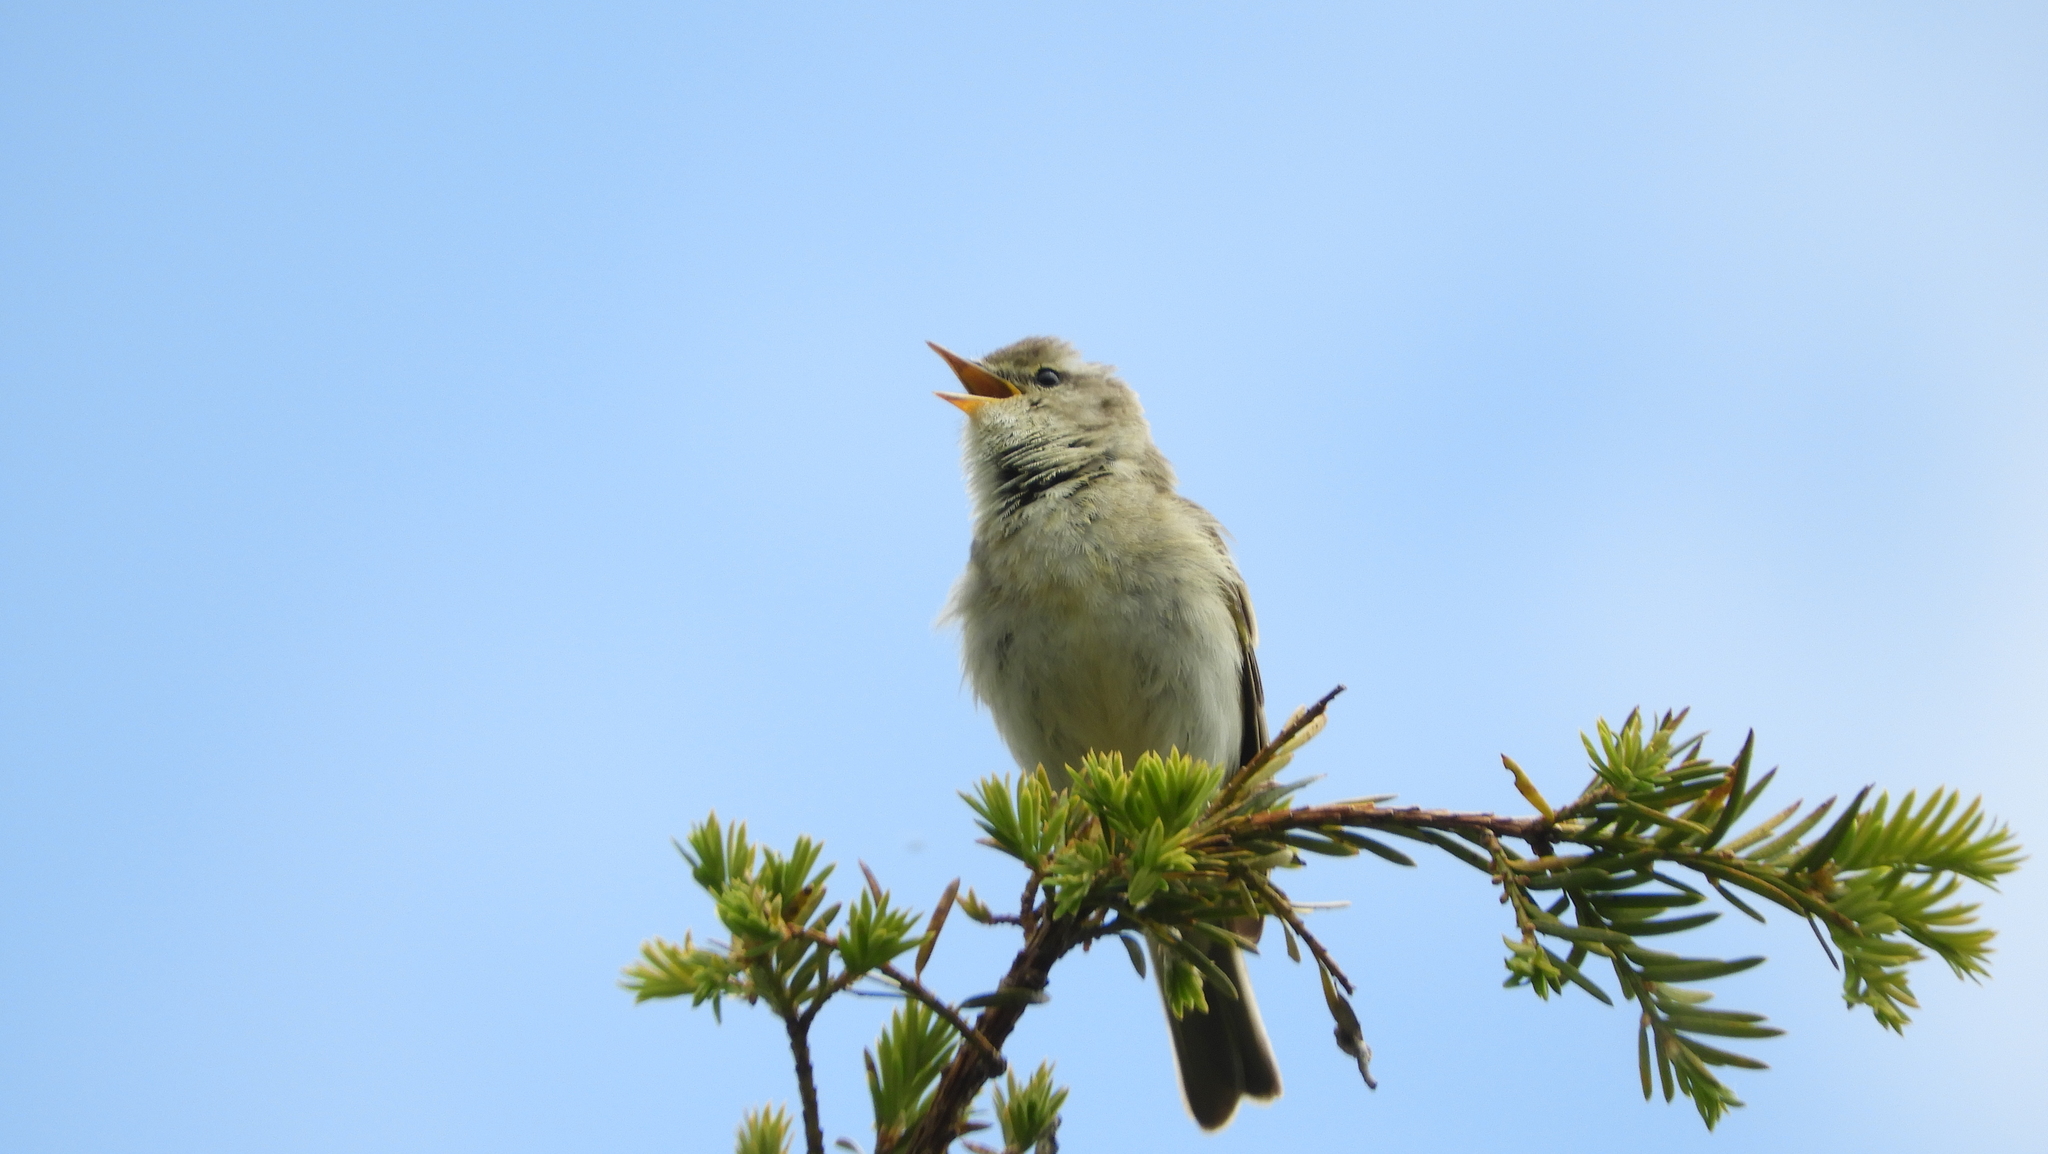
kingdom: Animalia
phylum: Chordata
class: Aves
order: Passeriformes
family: Phylloscopidae
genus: Phylloscopus
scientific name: Phylloscopus trochilus
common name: Willow warbler
